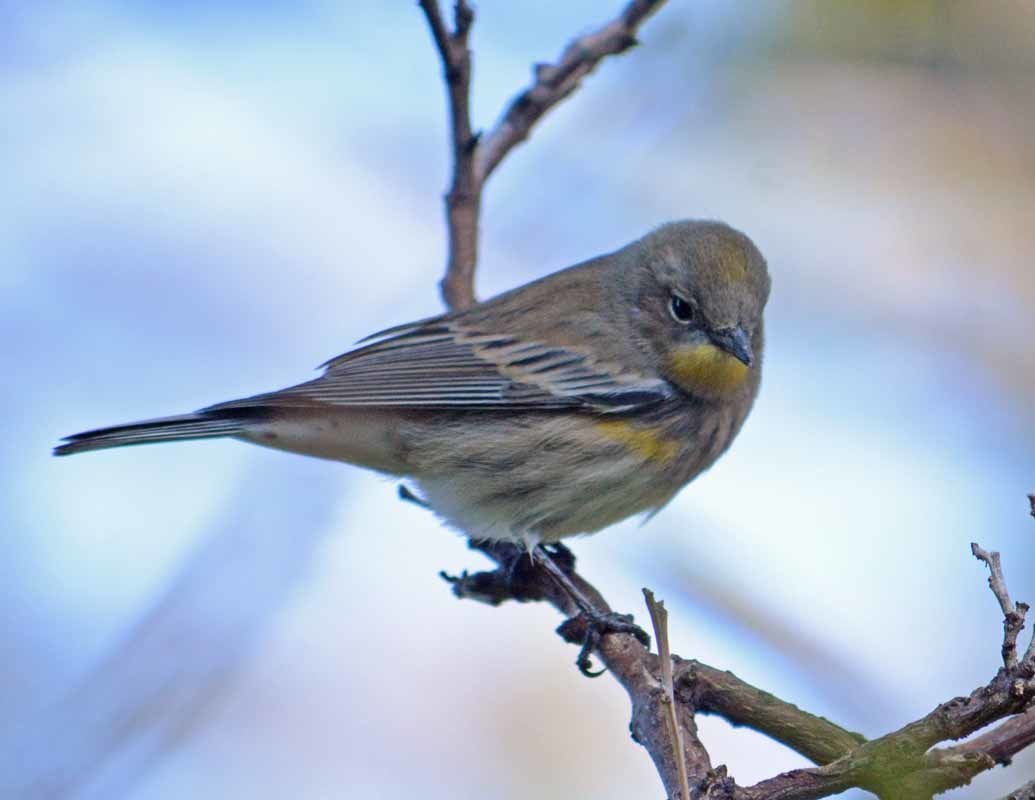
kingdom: Animalia
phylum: Chordata
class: Aves
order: Passeriformes
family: Parulidae
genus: Setophaga
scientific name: Setophaga coronata
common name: Myrtle warbler
